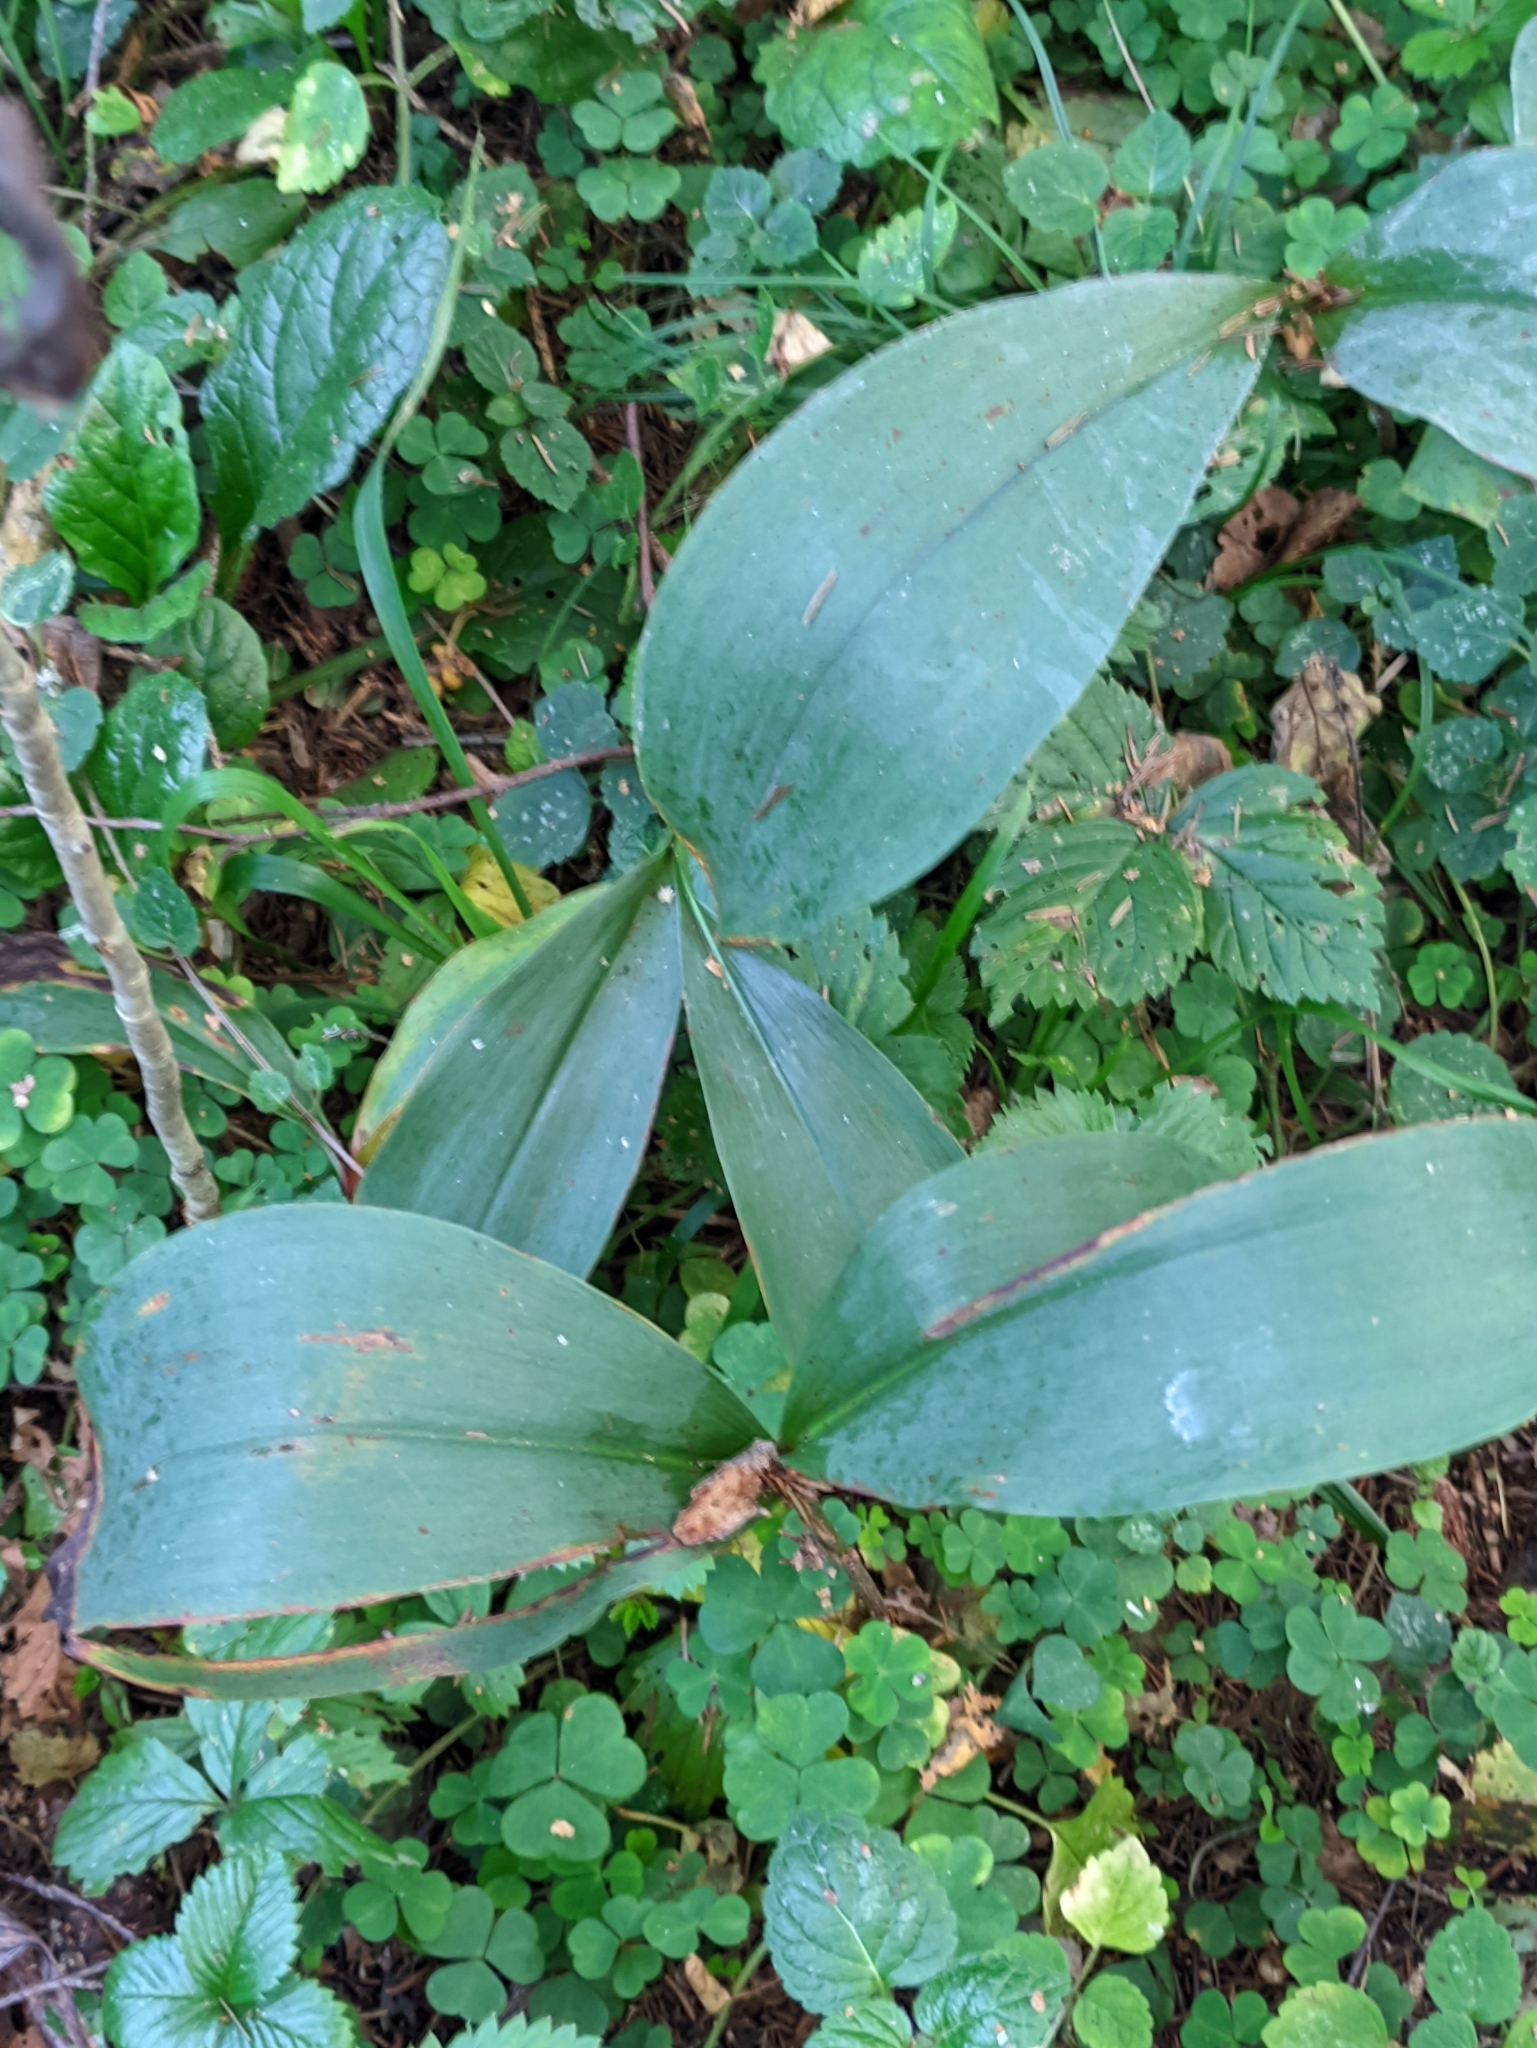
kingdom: Plantae
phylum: Tracheophyta
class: Liliopsida
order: Asparagales
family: Asparagaceae
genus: Convallaria
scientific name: Convallaria majalis
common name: Lily-of-the-valley
